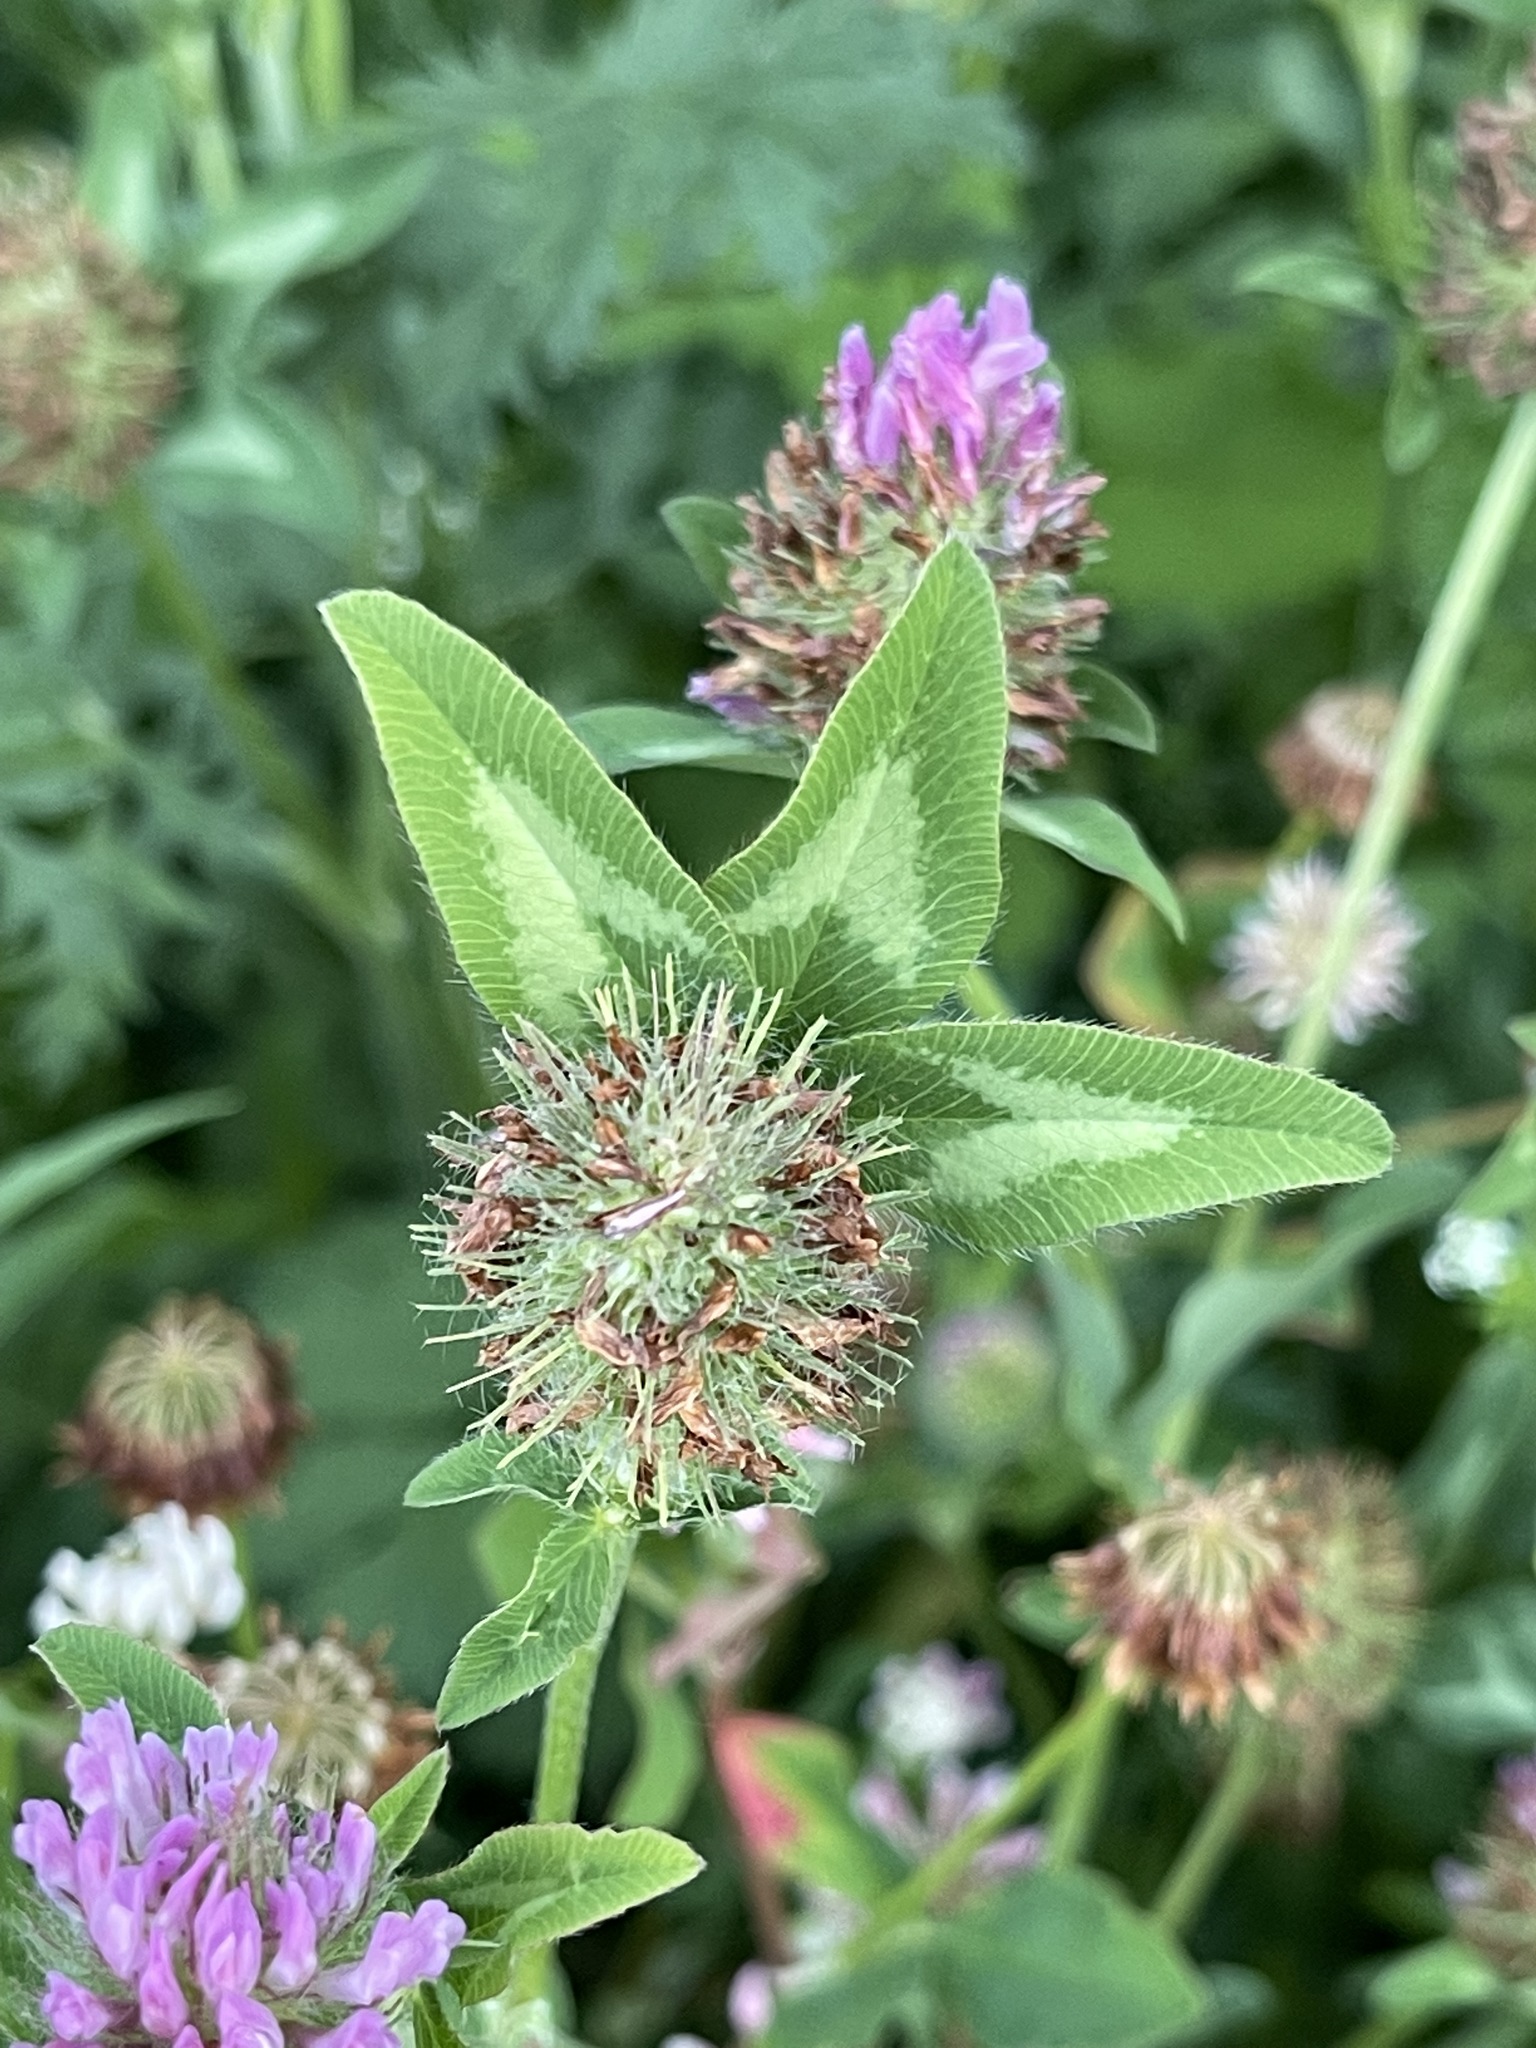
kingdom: Plantae
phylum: Tracheophyta
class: Magnoliopsida
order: Fabales
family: Fabaceae
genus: Trifolium
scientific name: Trifolium pratense
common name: Red clover
